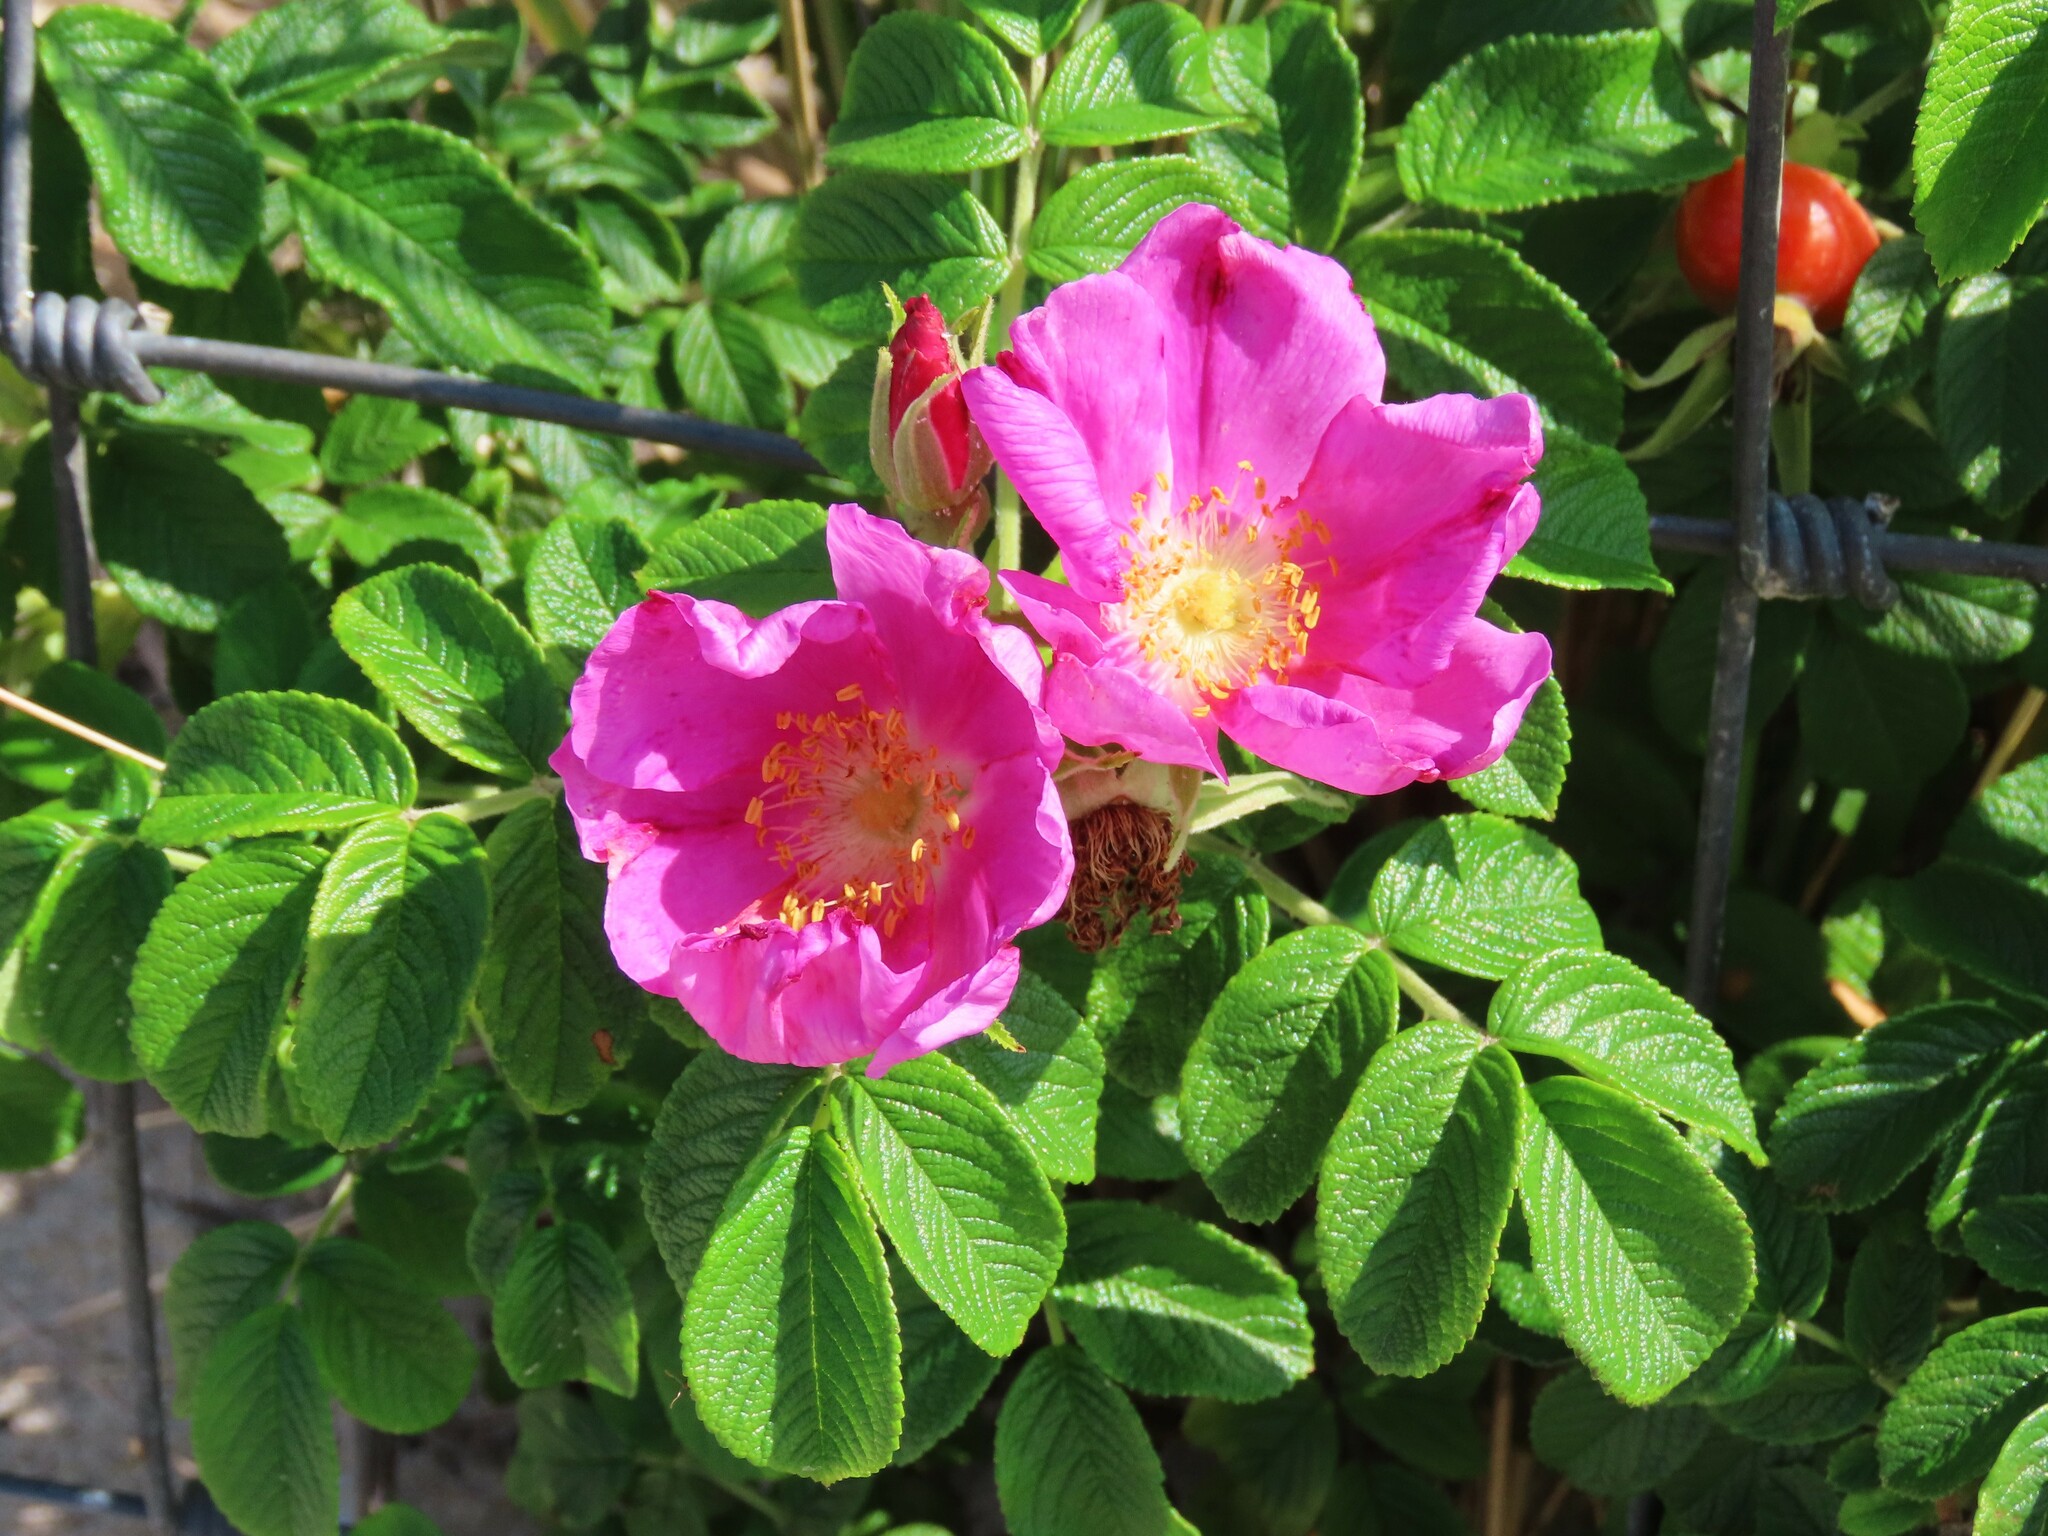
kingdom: Plantae
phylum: Tracheophyta
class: Magnoliopsida
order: Rosales
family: Rosaceae
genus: Rosa
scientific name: Rosa rugosa
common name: Japanese rose
